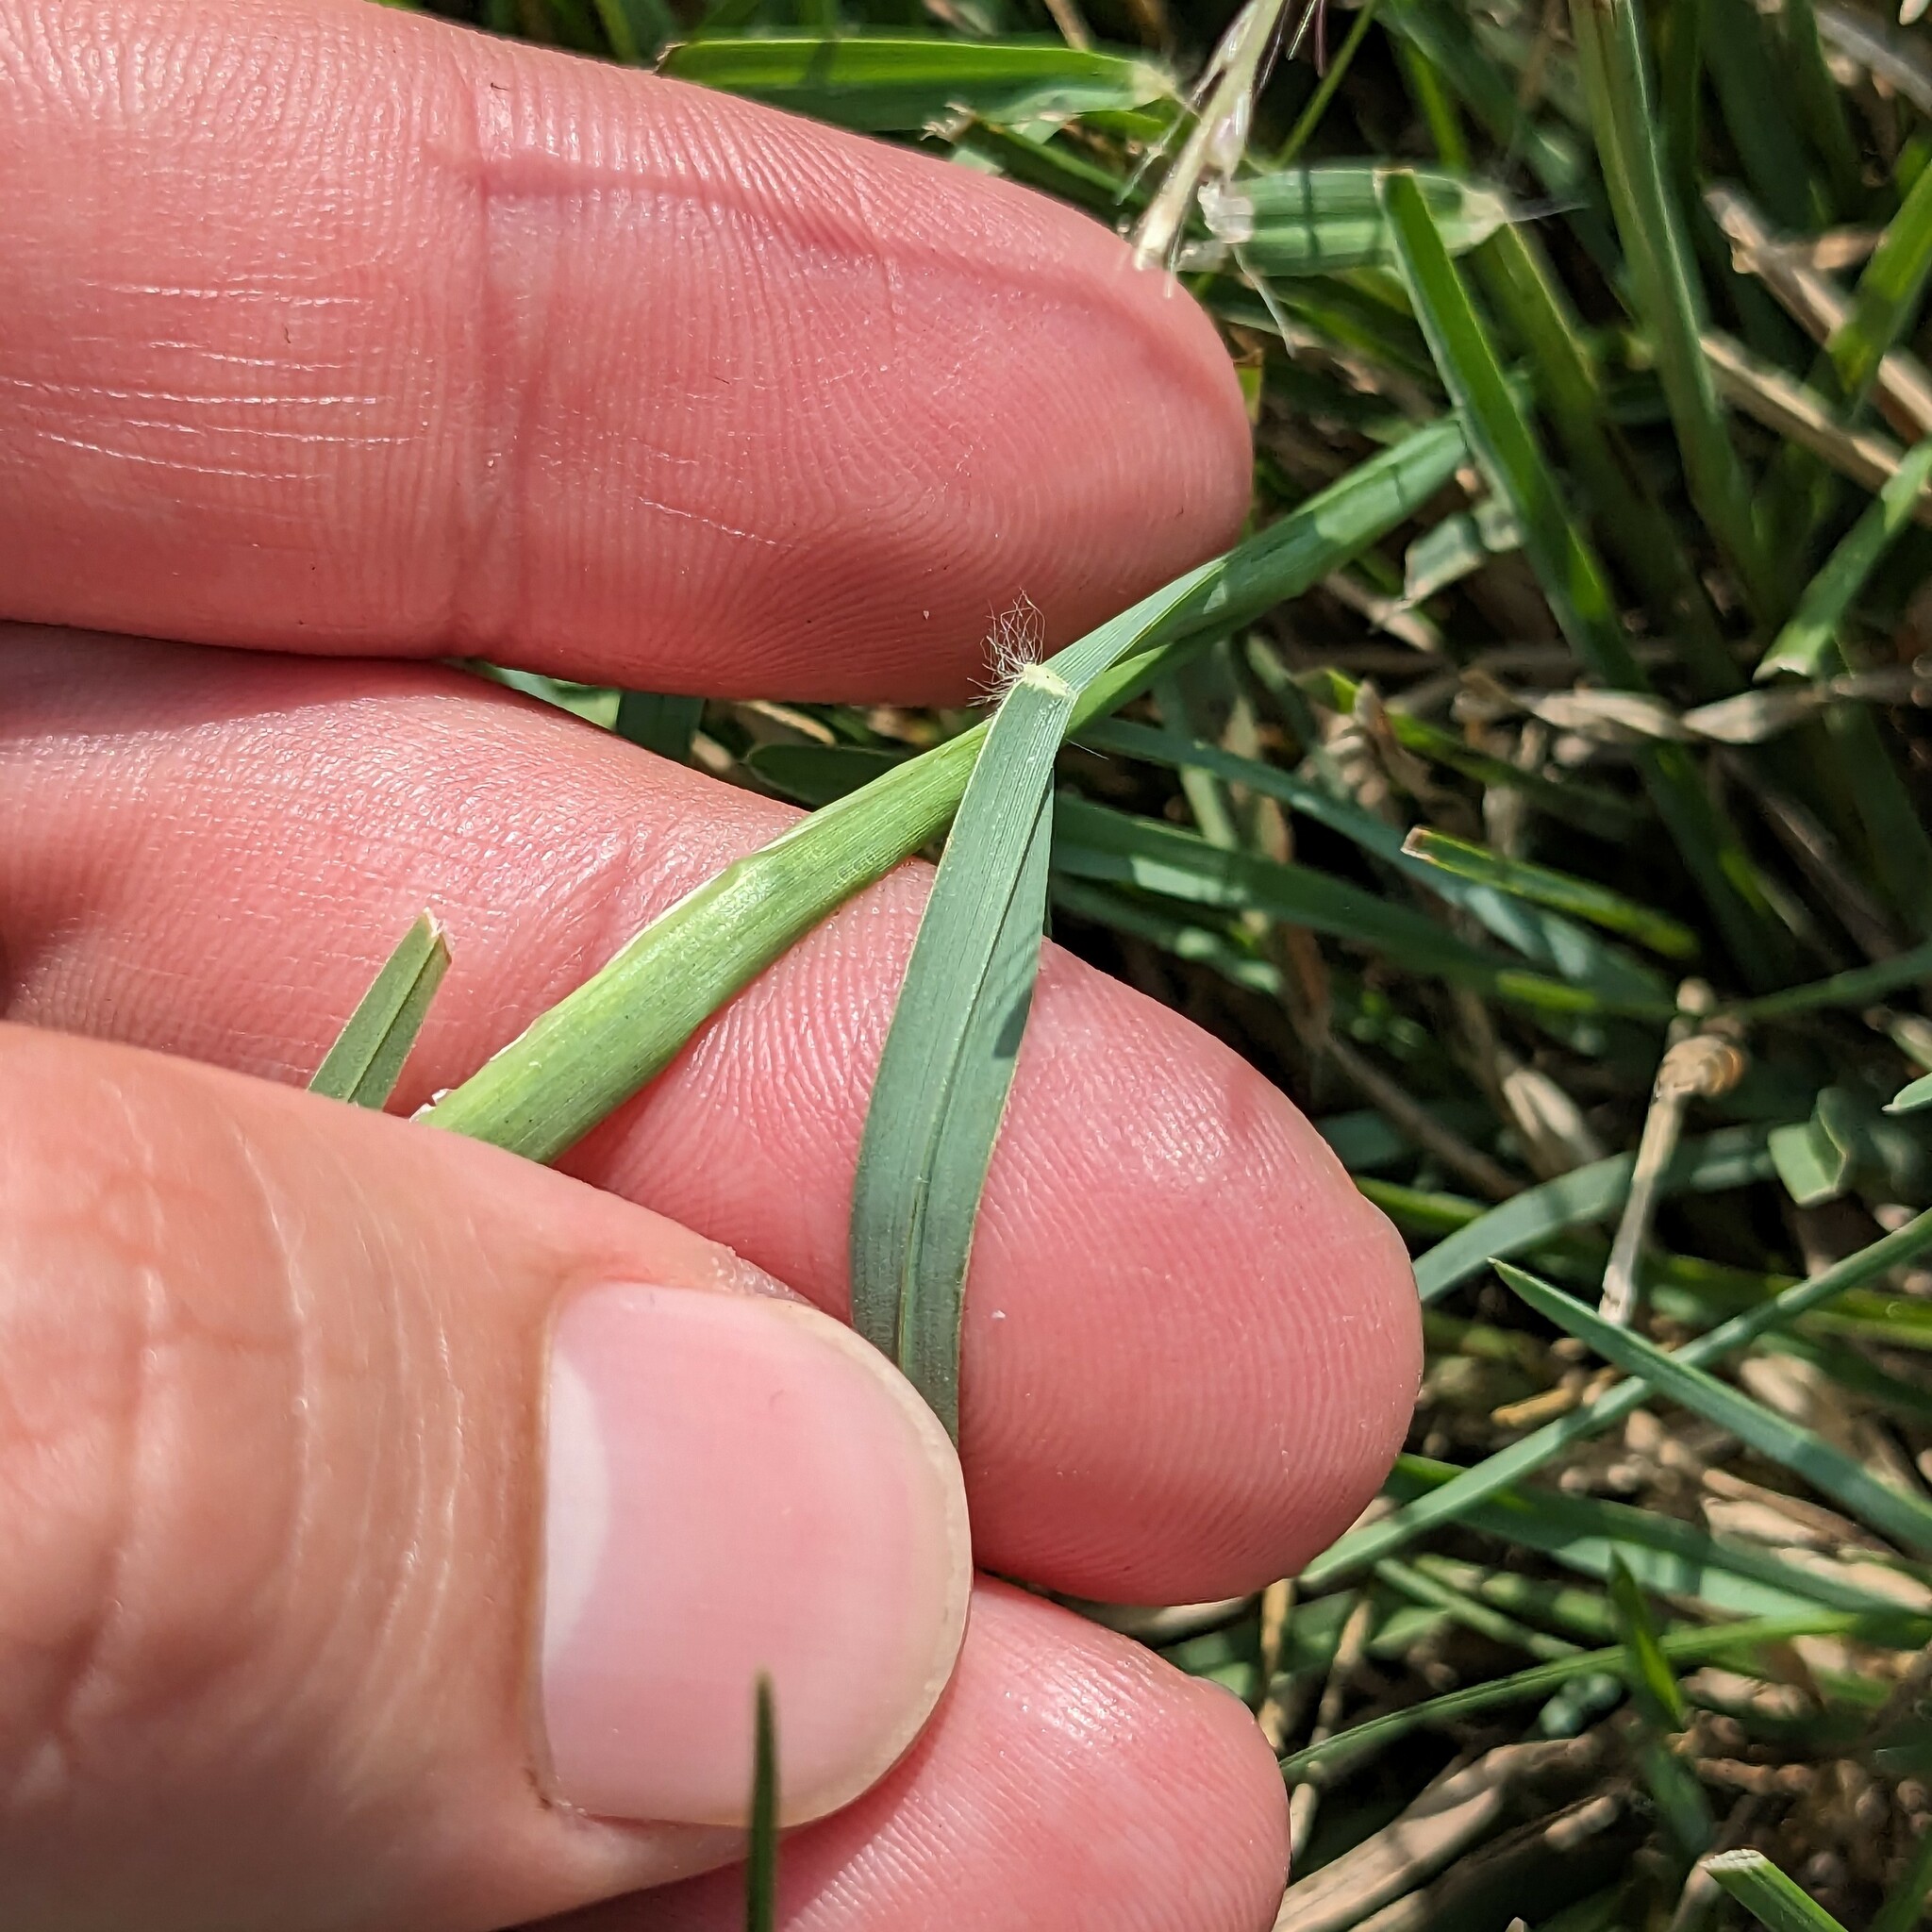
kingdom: Plantae
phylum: Tracheophyta
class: Liliopsida
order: Poales
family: Poaceae
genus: Chloris
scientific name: Chloris verticillata
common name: Tumble windmill grass
